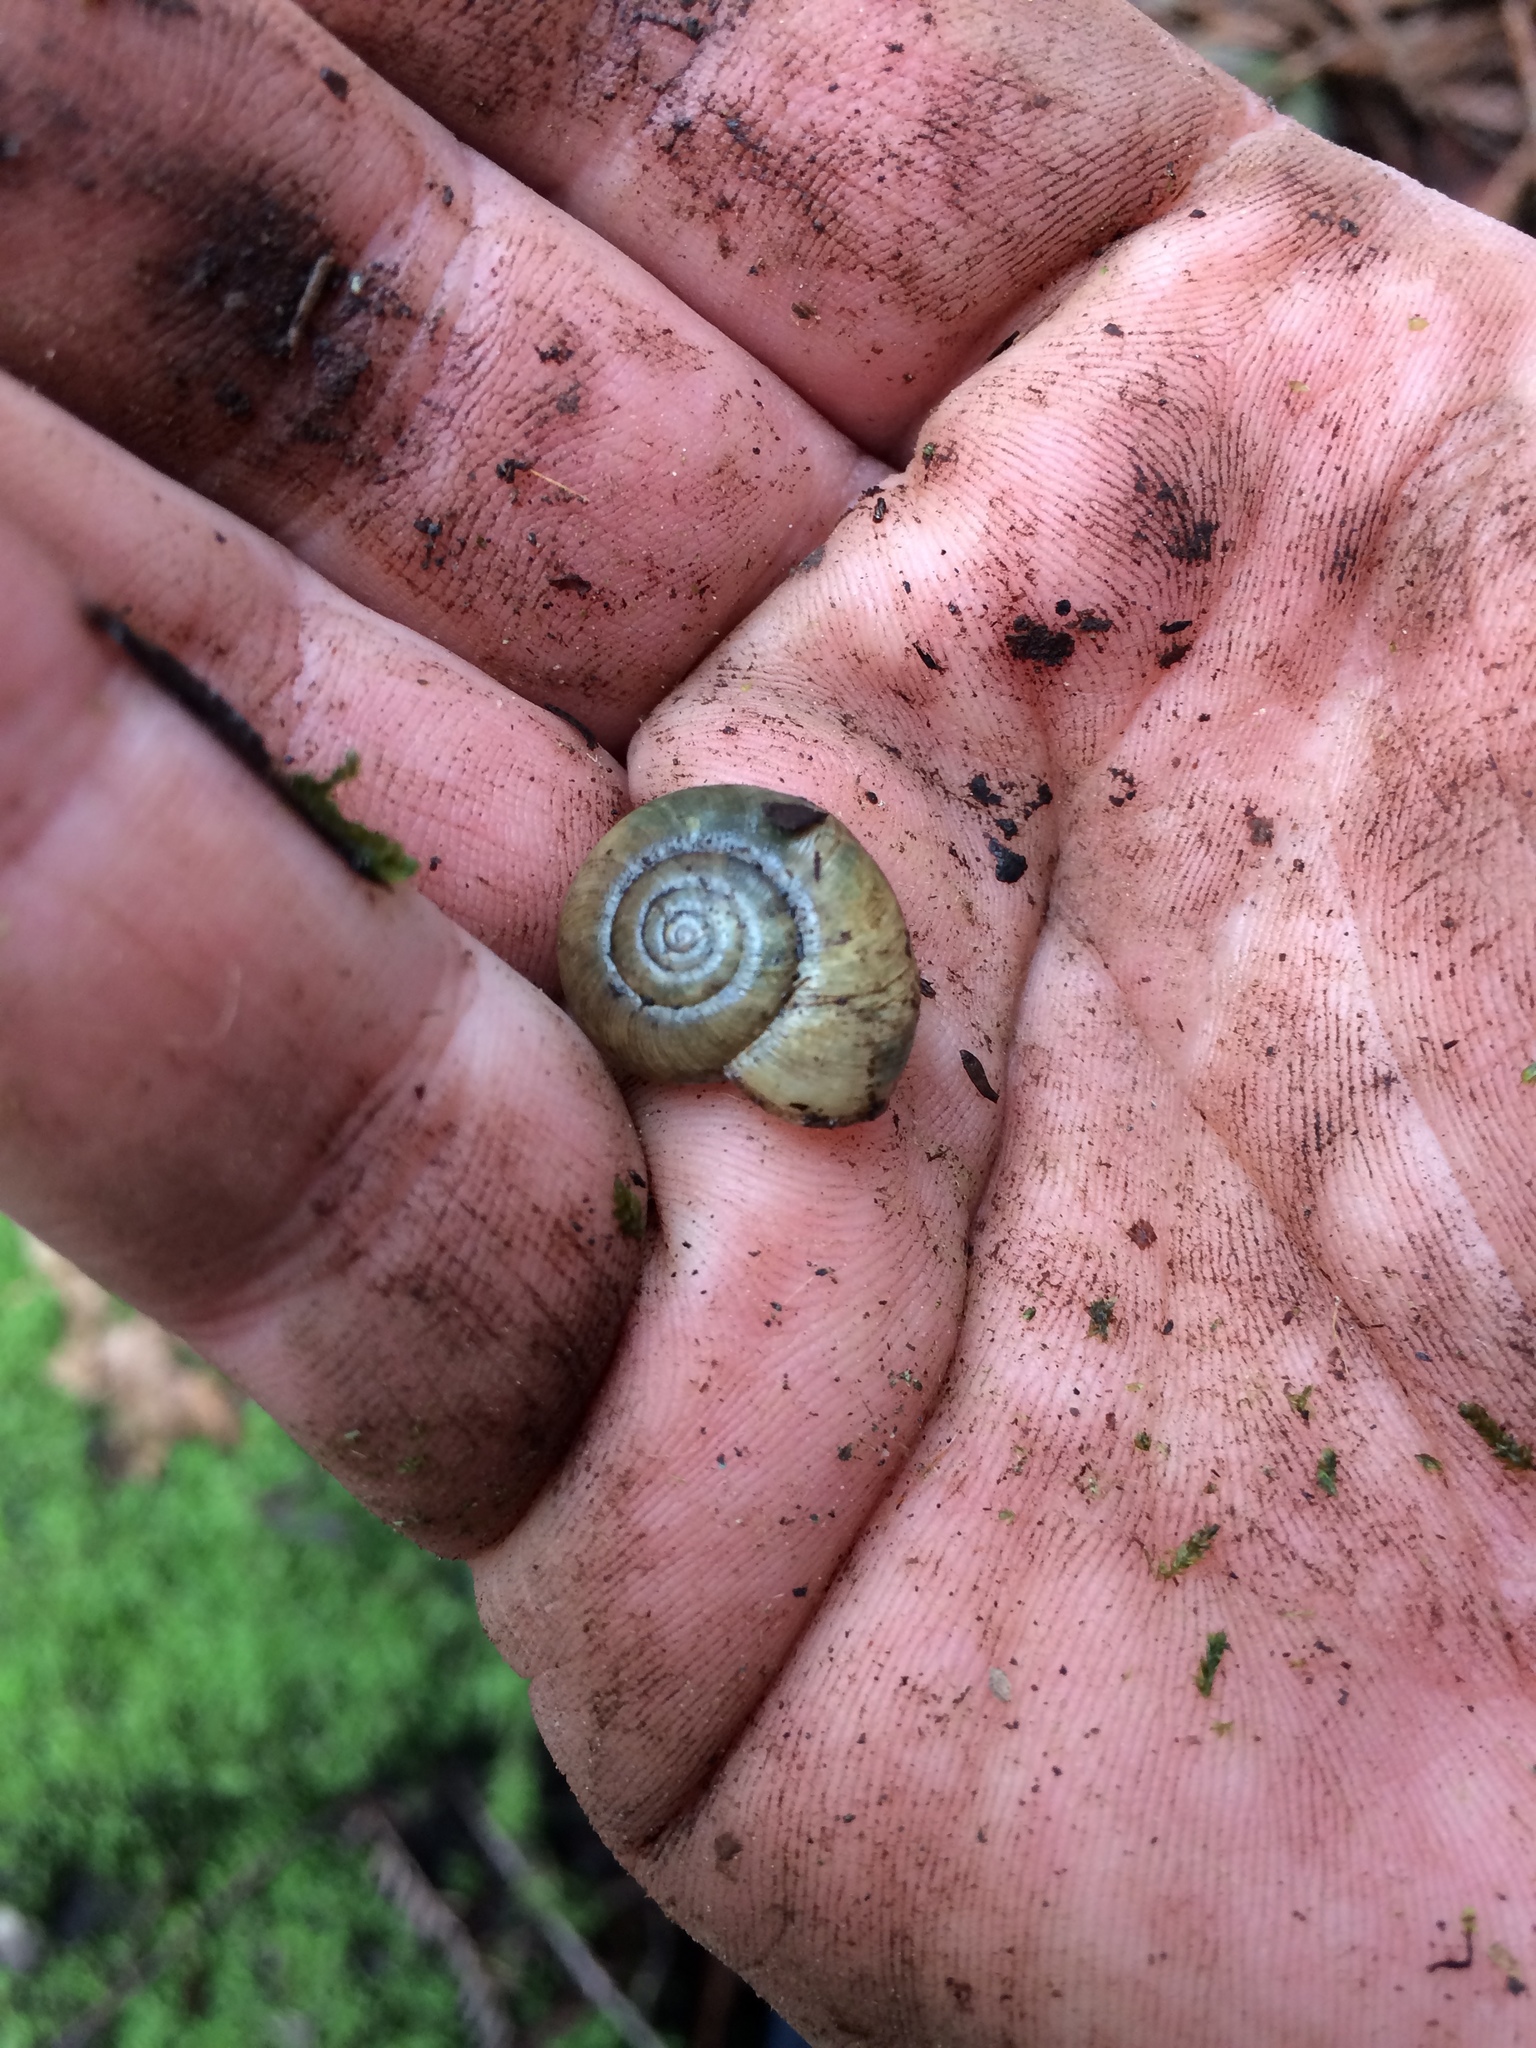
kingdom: Animalia
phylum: Mollusca
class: Gastropoda
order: Stylommatophora
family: Haplotrematidae
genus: Haplotrema
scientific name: Haplotrema minimum
